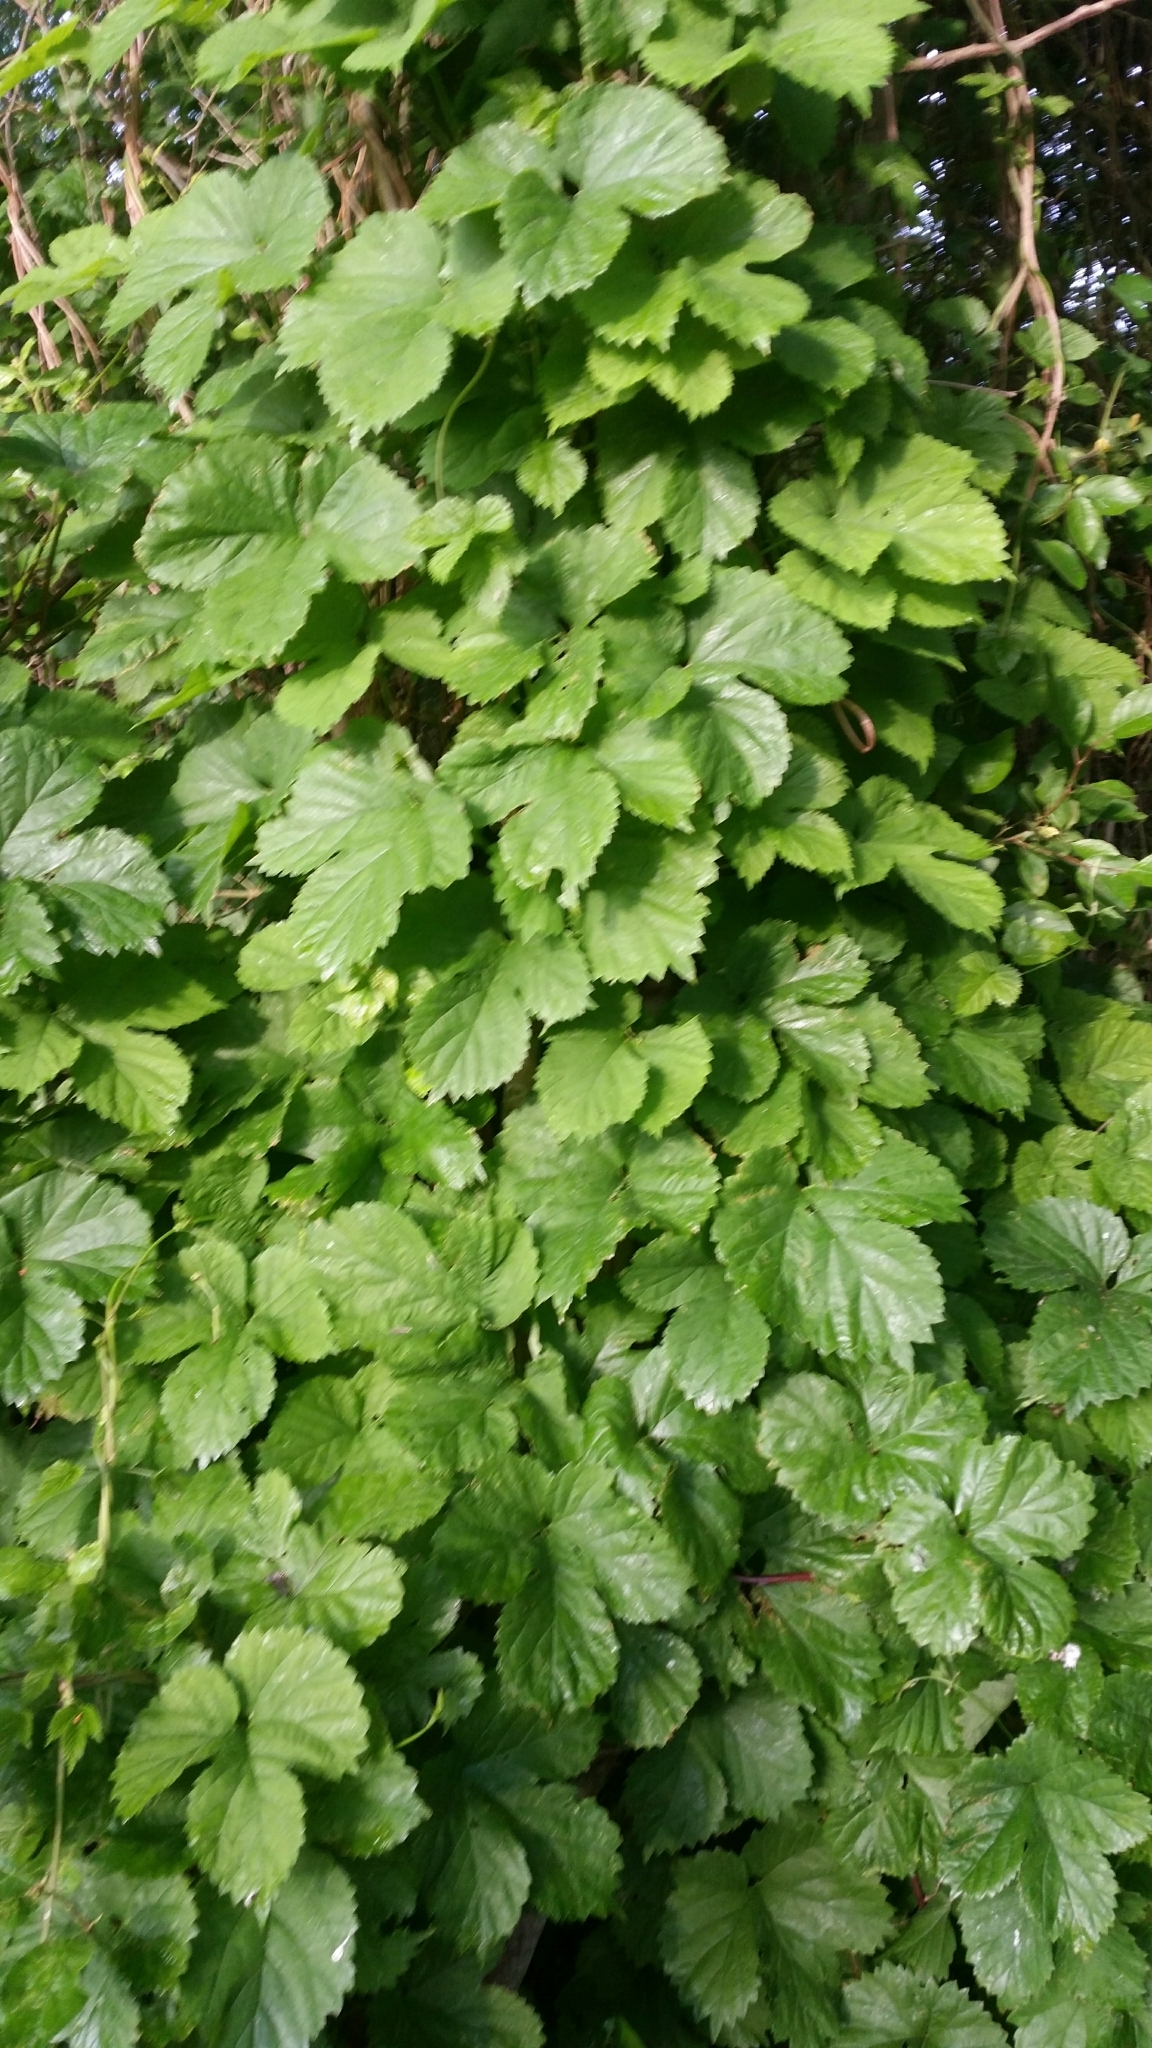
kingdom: Plantae
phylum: Tracheophyta
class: Magnoliopsida
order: Rosales
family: Cannabaceae
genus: Humulus
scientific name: Humulus lupulus
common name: Hop
